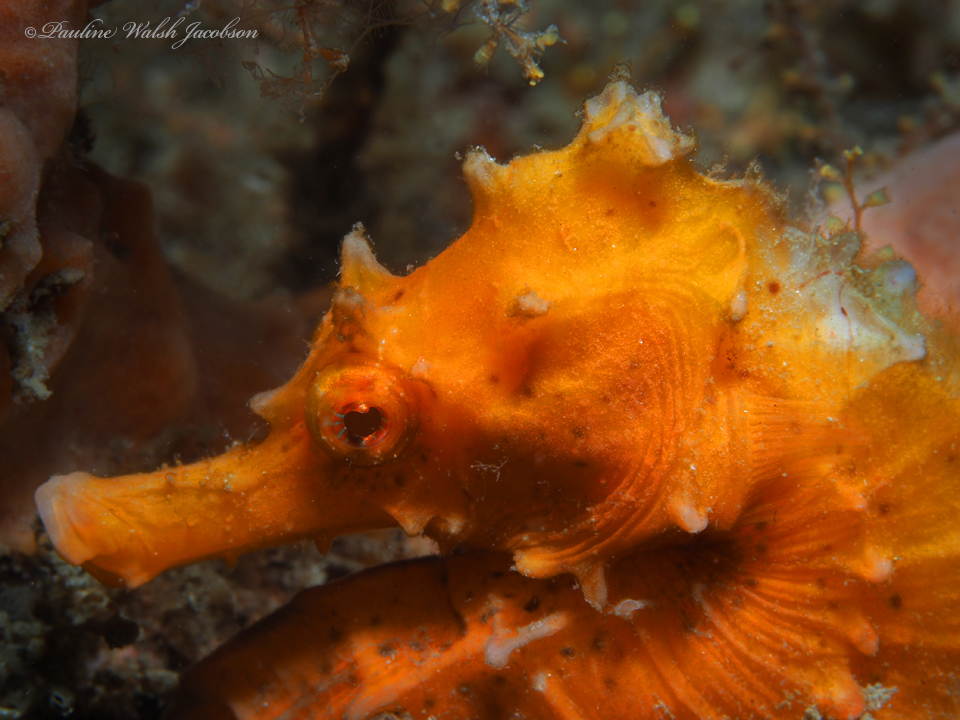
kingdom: Animalia
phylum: Chordata
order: Syngnathiformes
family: Syngnathidae
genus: Hippocampus
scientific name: Hippocampus erectus
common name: Lined seahorse
